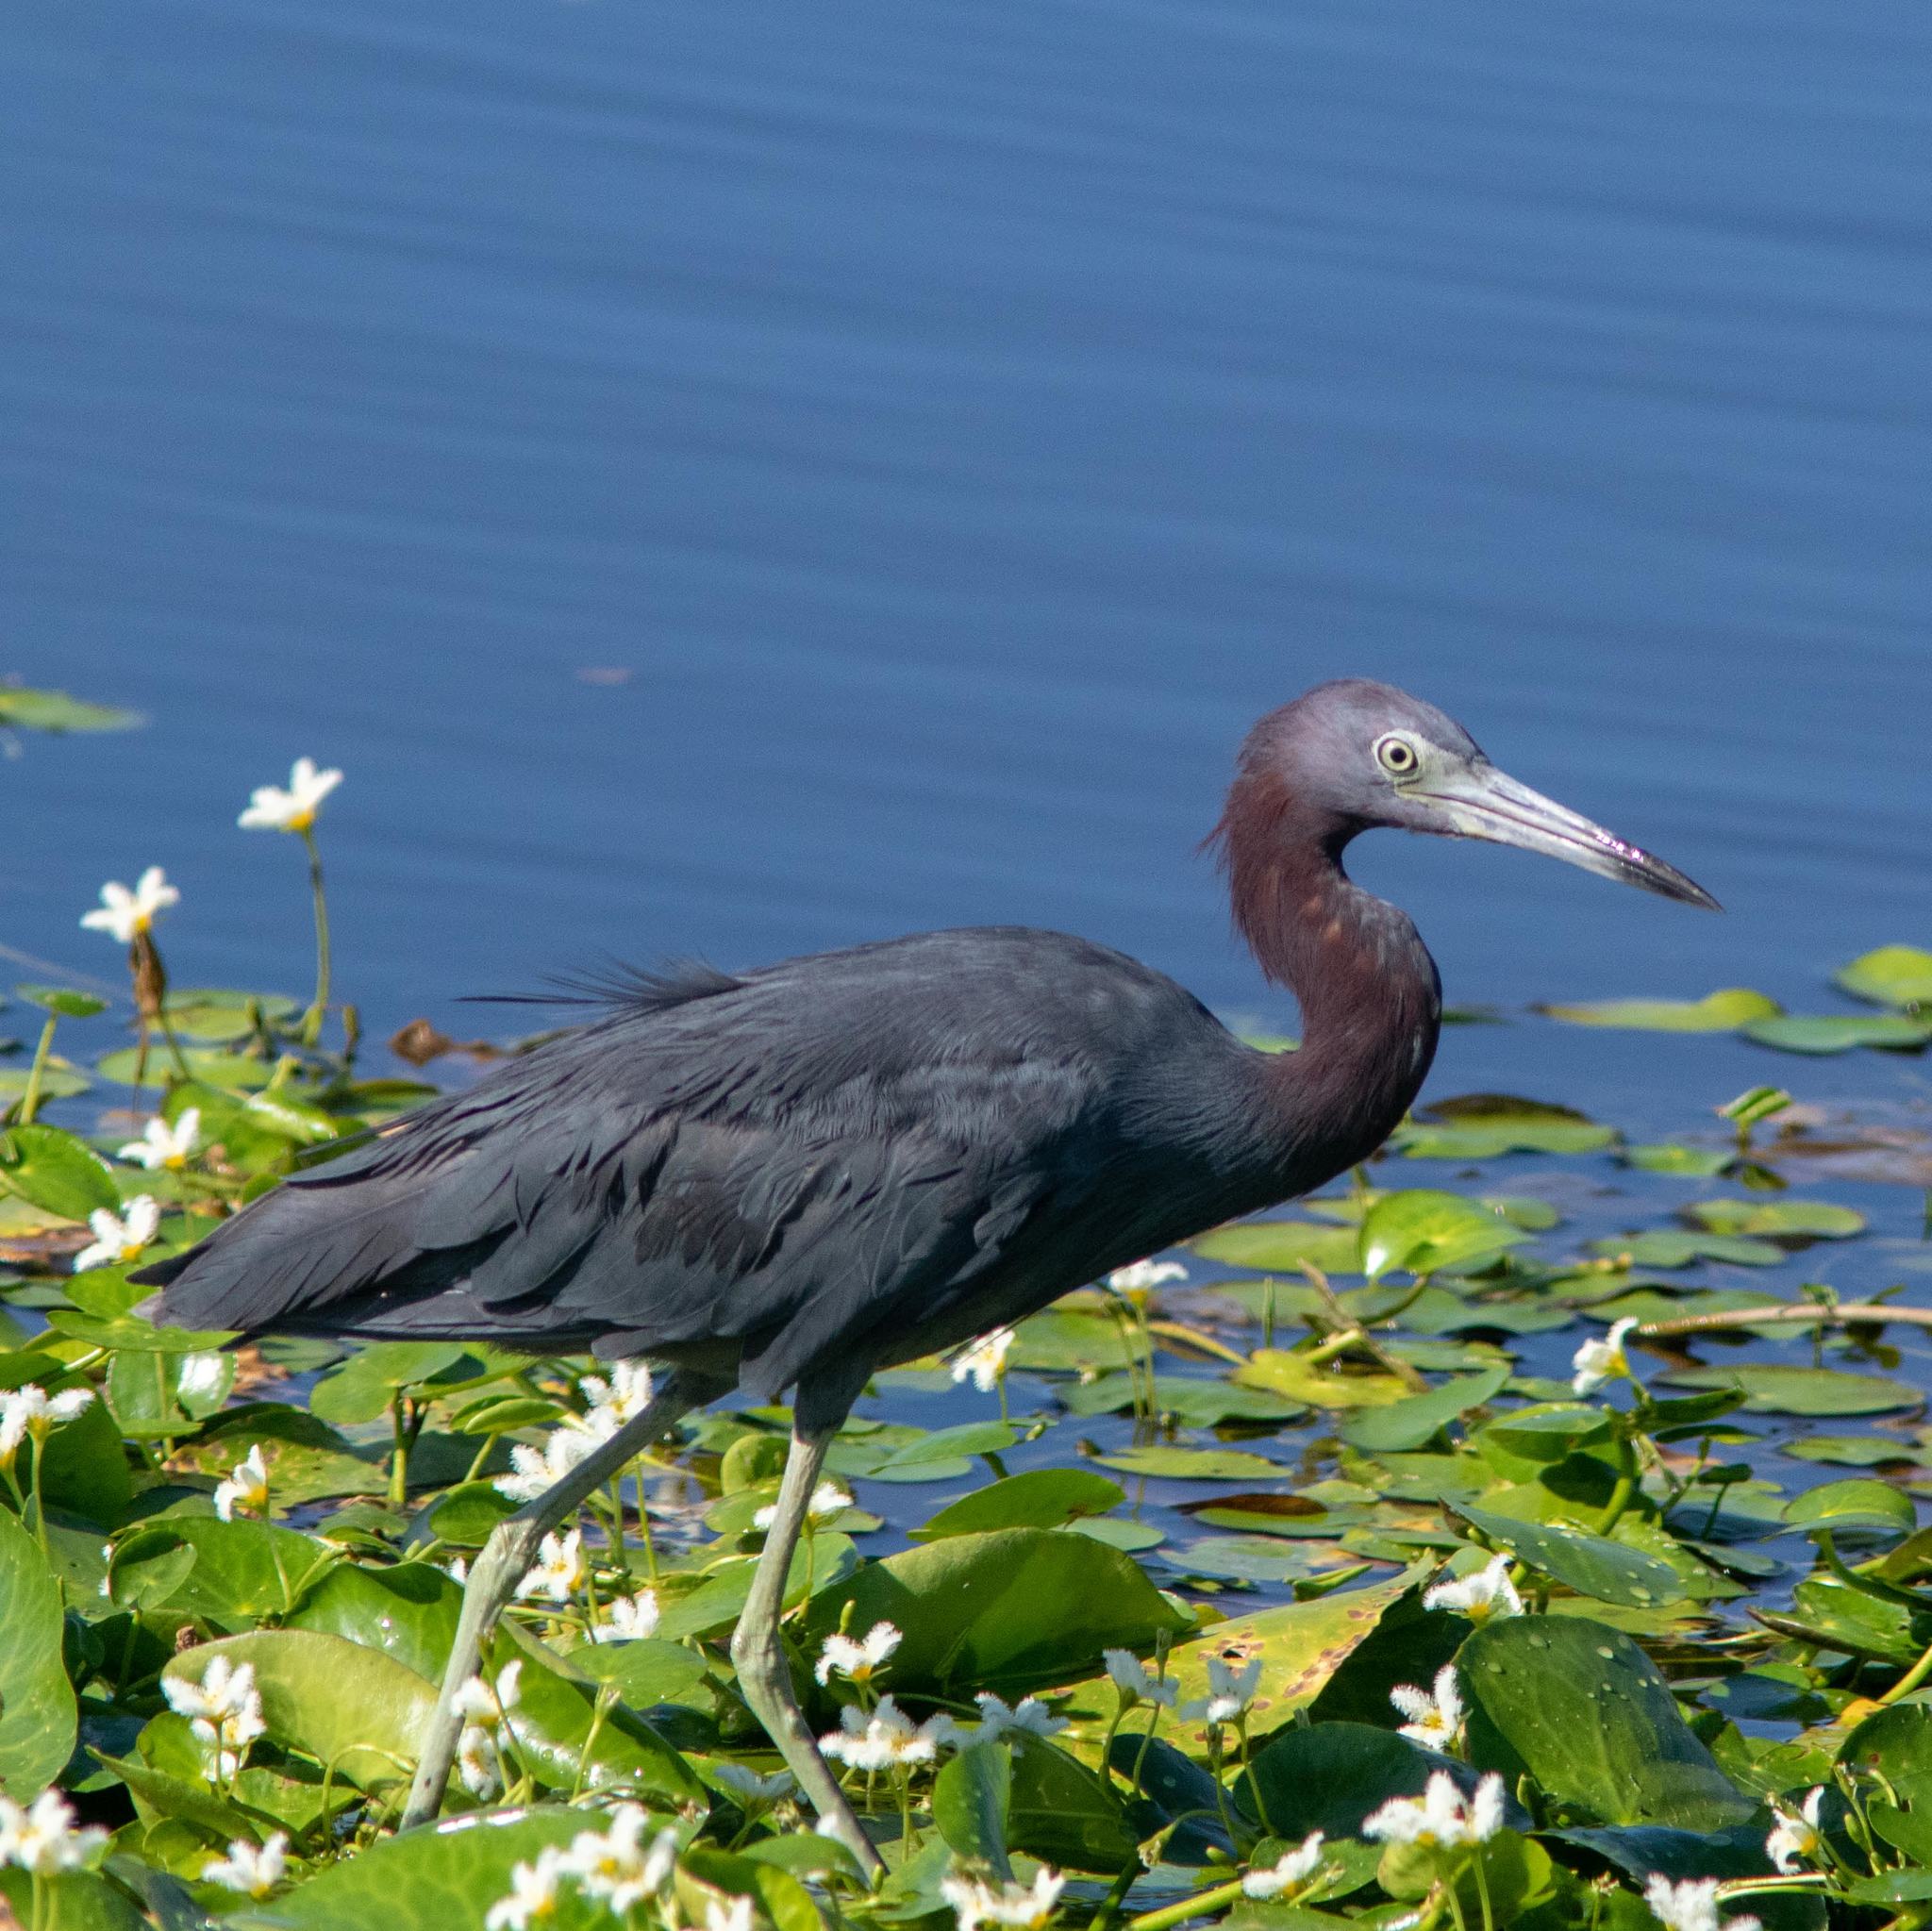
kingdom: Animalia
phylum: Chordata
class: Aves
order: Pelecaniformes
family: Ardeidae
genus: Egretta
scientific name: Egretta caerulea
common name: Little blue heron
